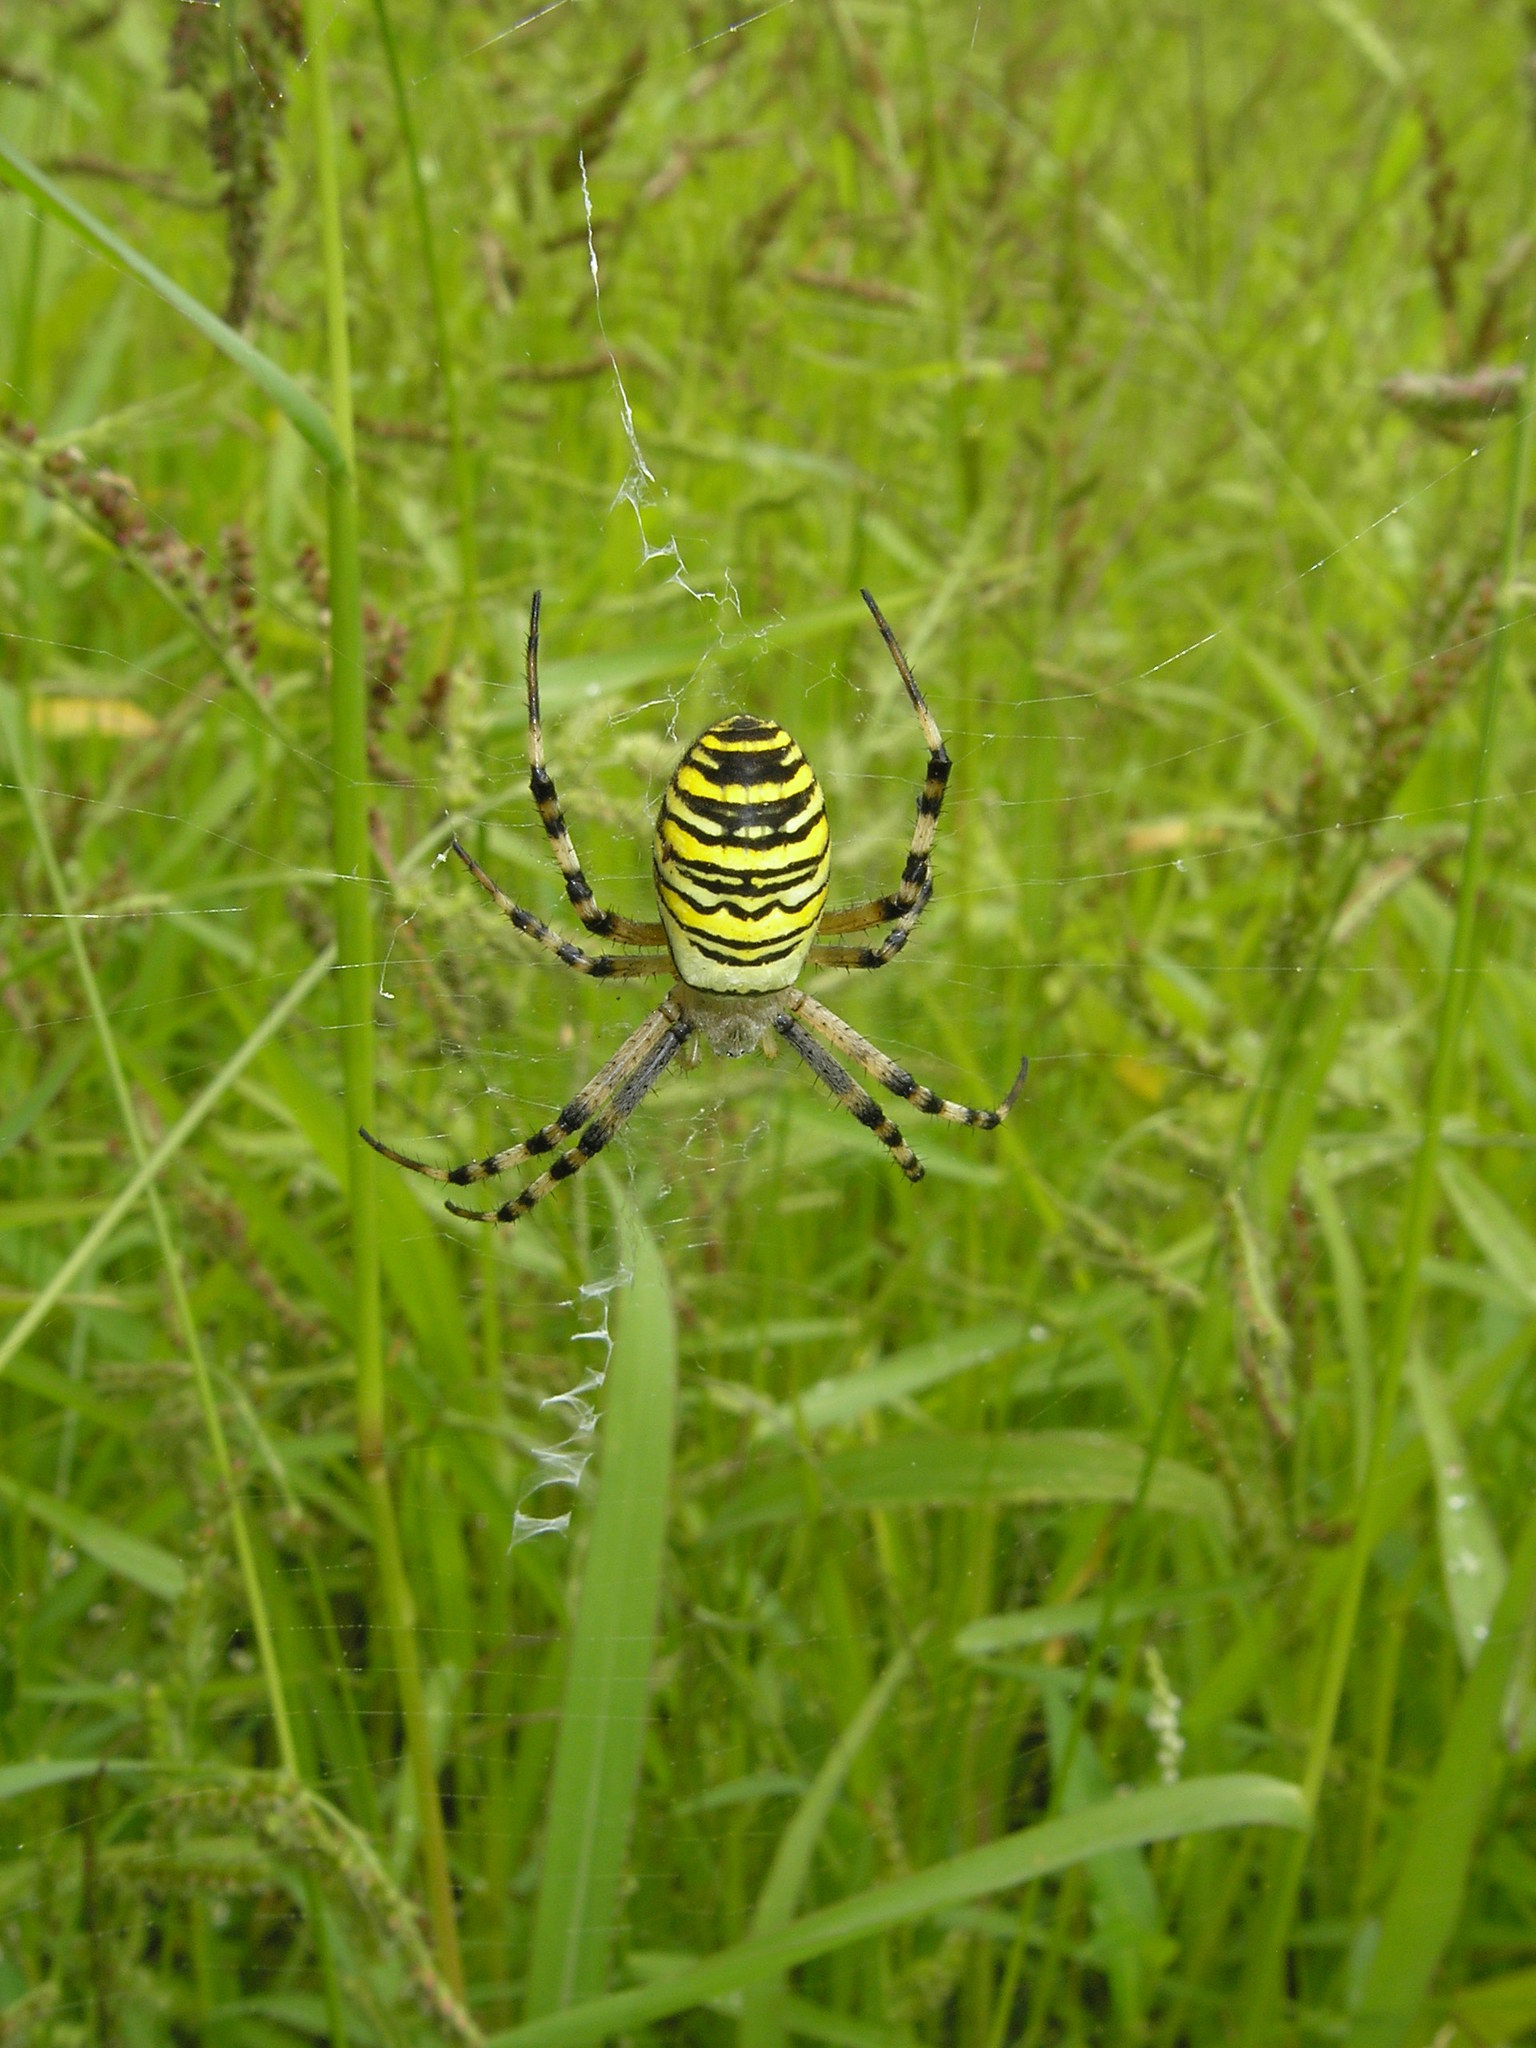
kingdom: Animalia
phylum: Arthropoda
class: Arachnida
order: Araneae
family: Araneidae
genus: Argiope
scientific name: Argiope bruennichi
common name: Wasp spider
